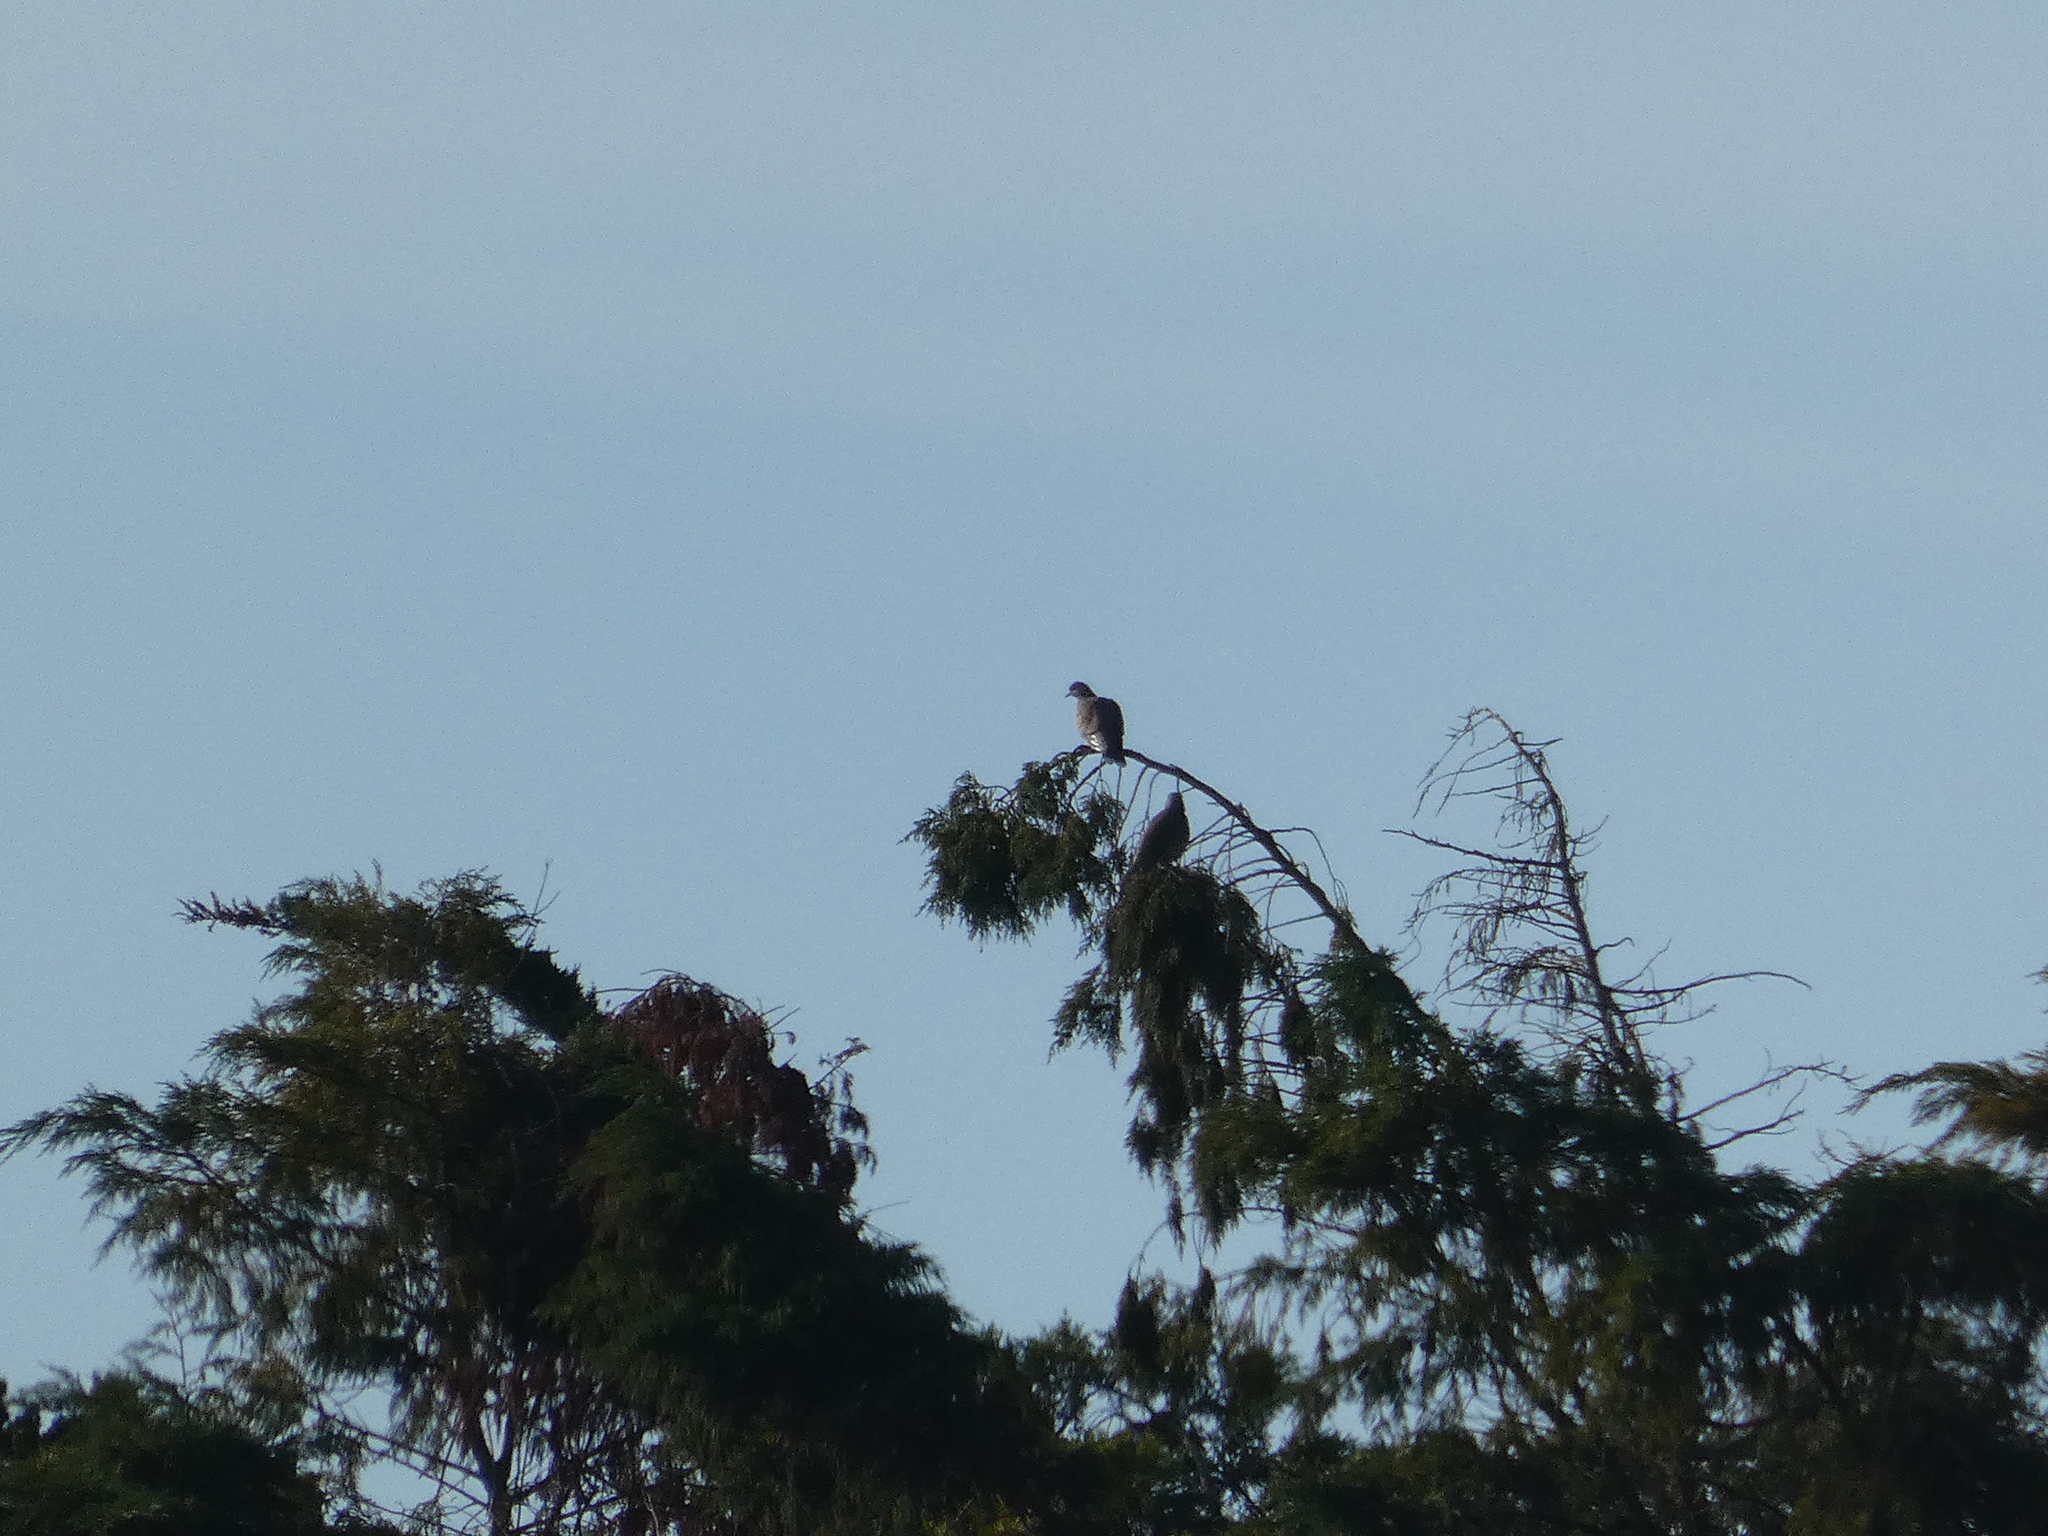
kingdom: Animalia
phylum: Chordata
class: Aves
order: Columbiformes
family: Columbidae
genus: Streptopelia
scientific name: Streptopelia turtur
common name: European turtle dove
